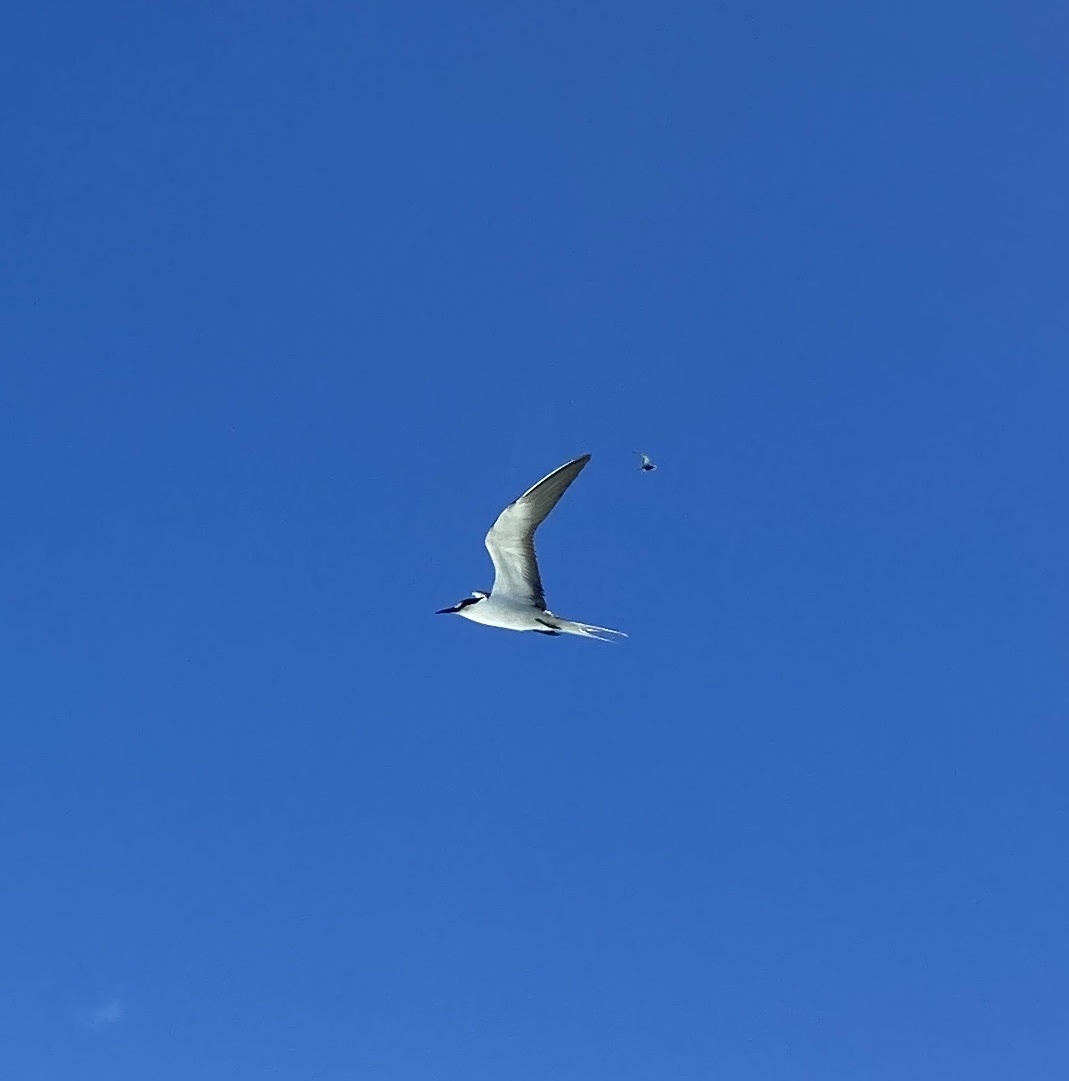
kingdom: Animalia
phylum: Chordata
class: Aves
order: Charadriiformes
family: Laridae
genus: Onychoprion
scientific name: Onychoprion fuscatus
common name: Sooty tern
